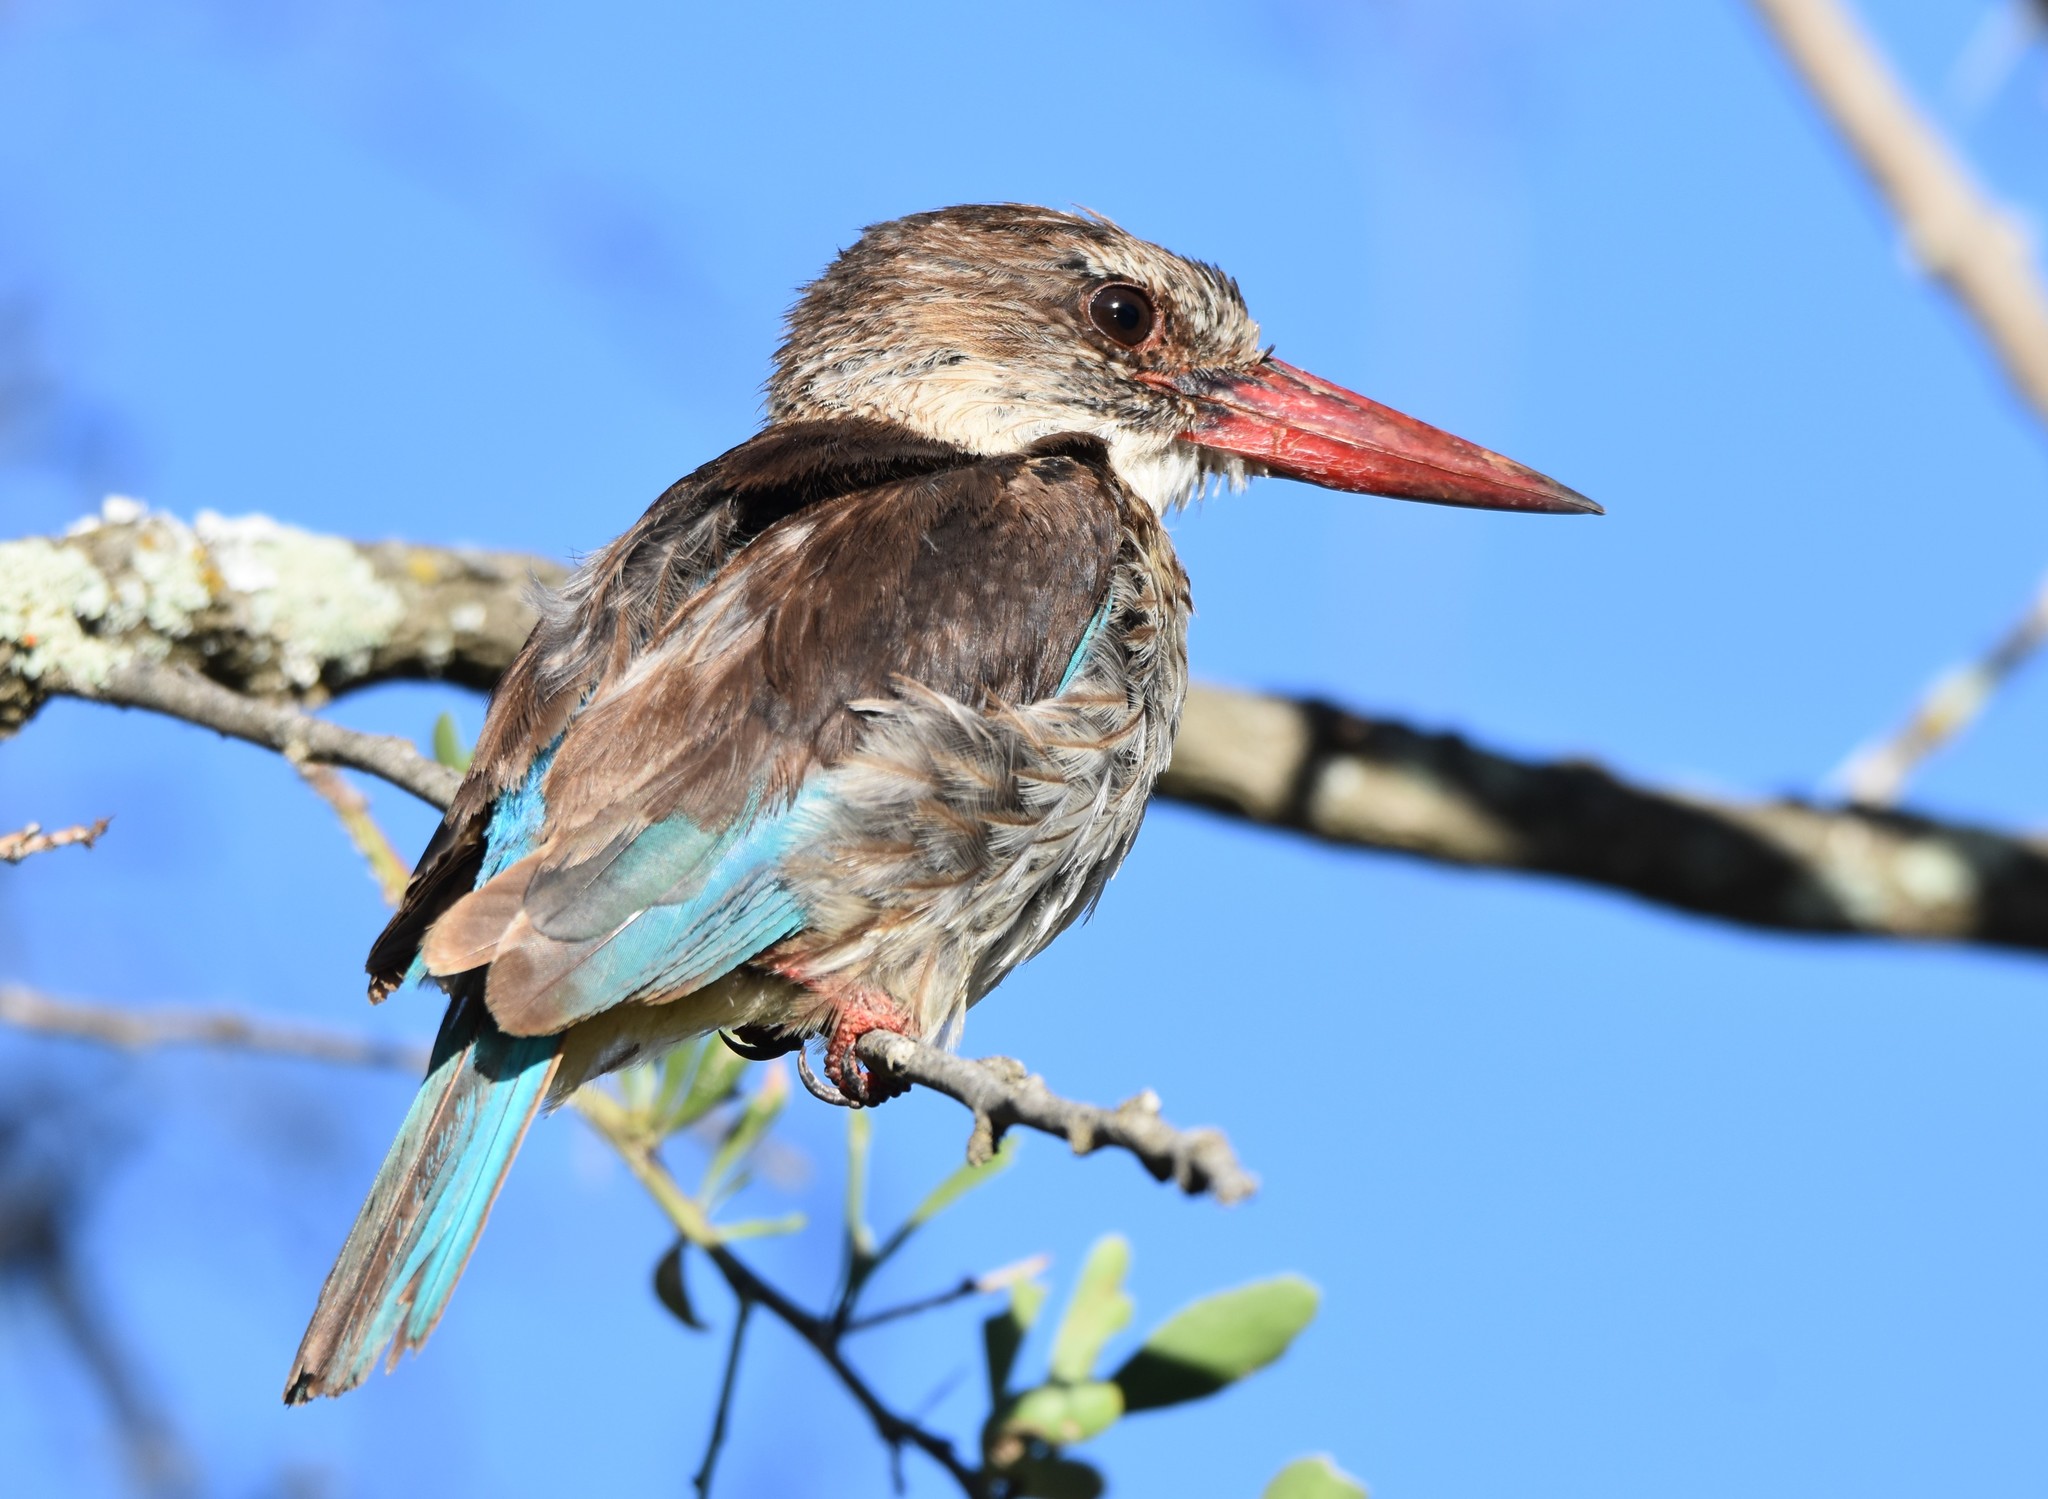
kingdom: Animalia
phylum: Chordata
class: Aves
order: Coraciiformes
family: Alcedinidae
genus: Halcyon
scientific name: Halcyon albiventris
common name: Brown-hooded kingfisher
